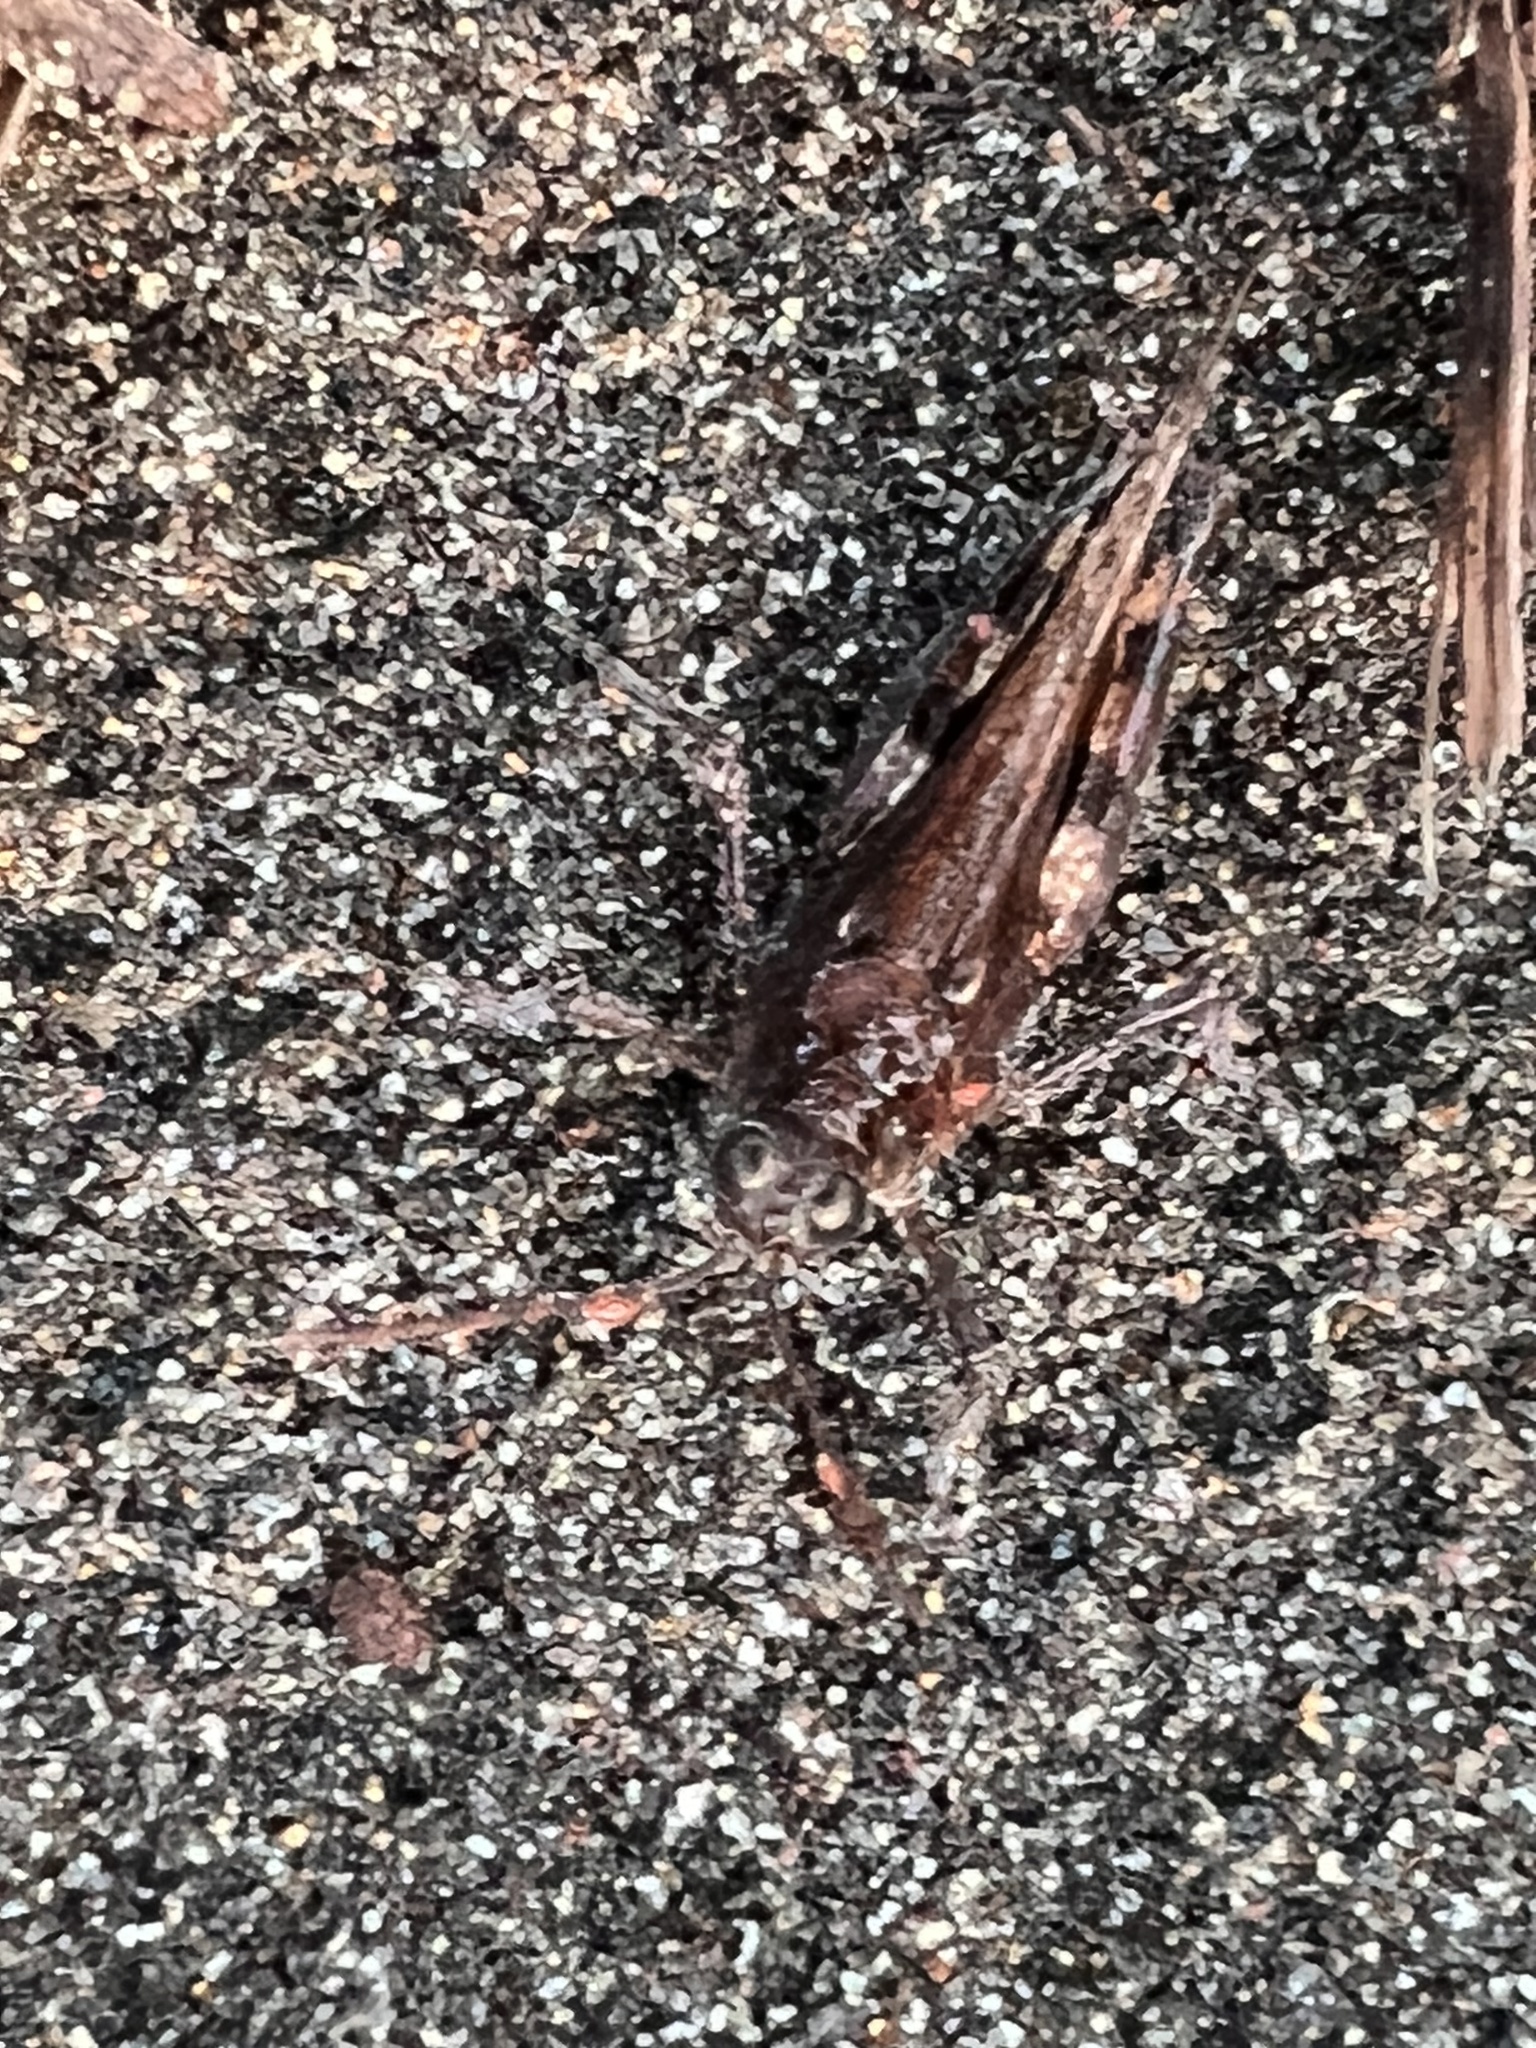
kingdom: Animalia
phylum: Arthropoda
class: Insecta
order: Orthoptera
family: Acrididae
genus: Heliastus
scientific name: Heliastus sumichrasti
